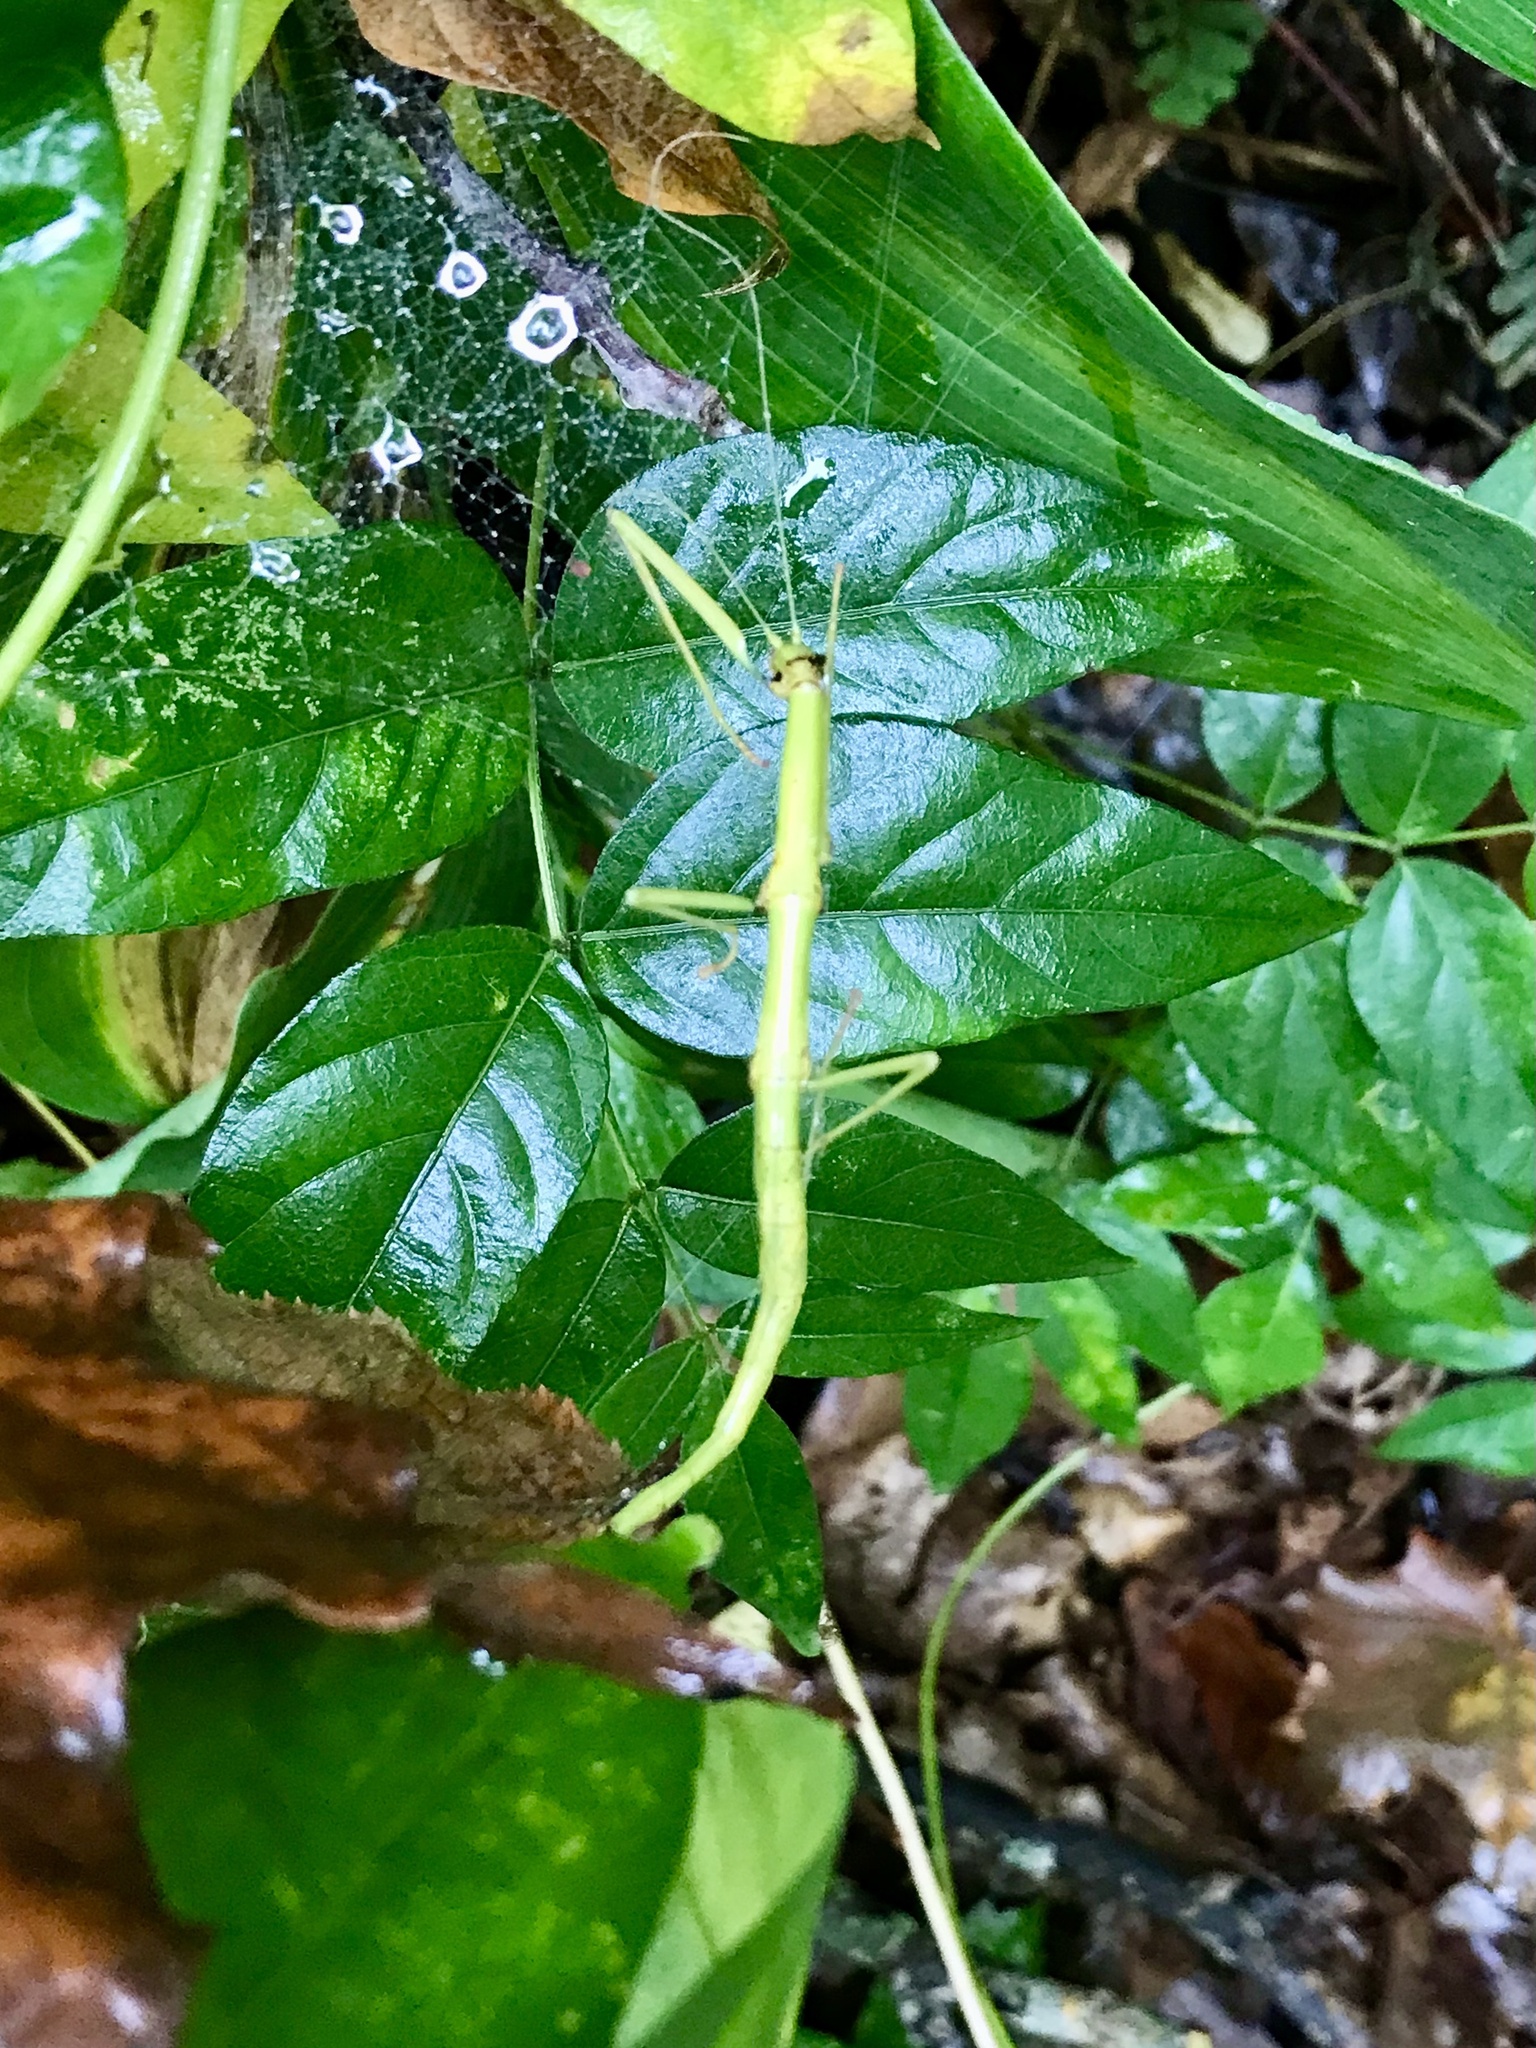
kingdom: Animalia
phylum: Arthropoda
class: Insecta
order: Phasmida
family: Diapheromeridae
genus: Diapheromera
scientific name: Diapheromera femorata
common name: Common american walkingstick
